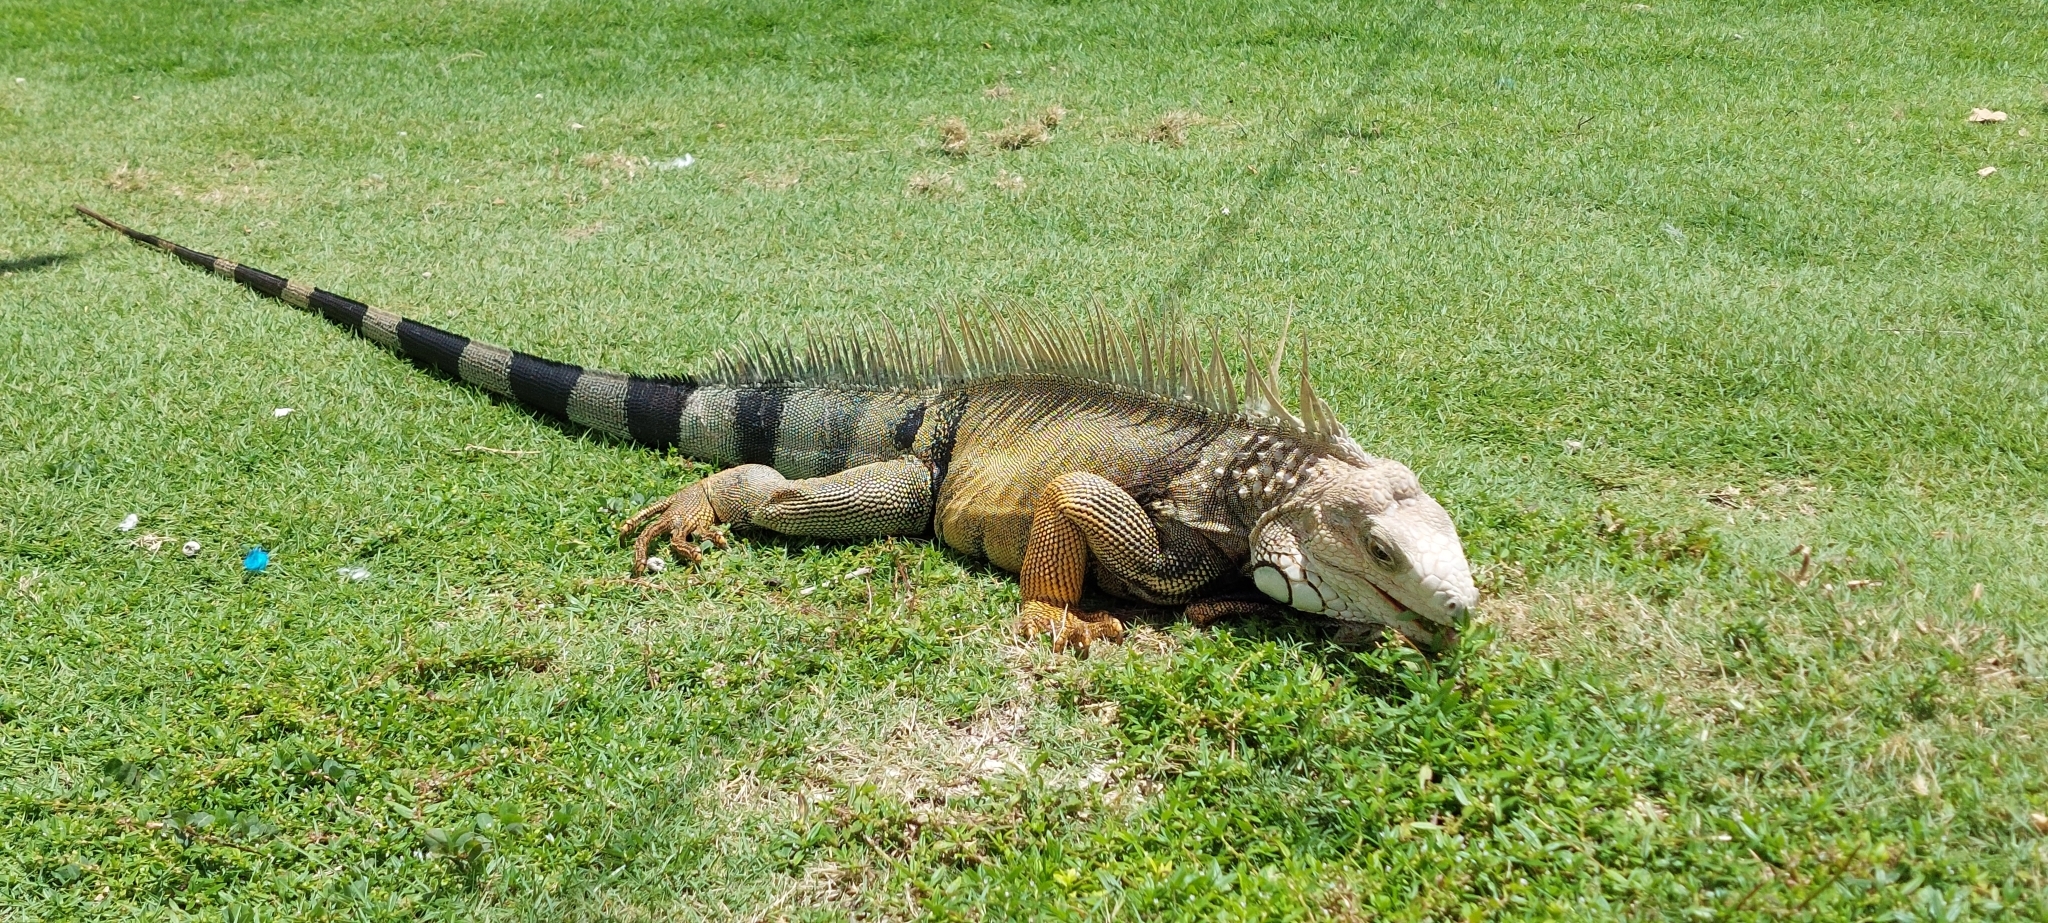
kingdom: Animalia
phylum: Chordata
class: Squamata
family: Iguanidae
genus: Iguana
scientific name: Iguana iguana
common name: Green iguana
